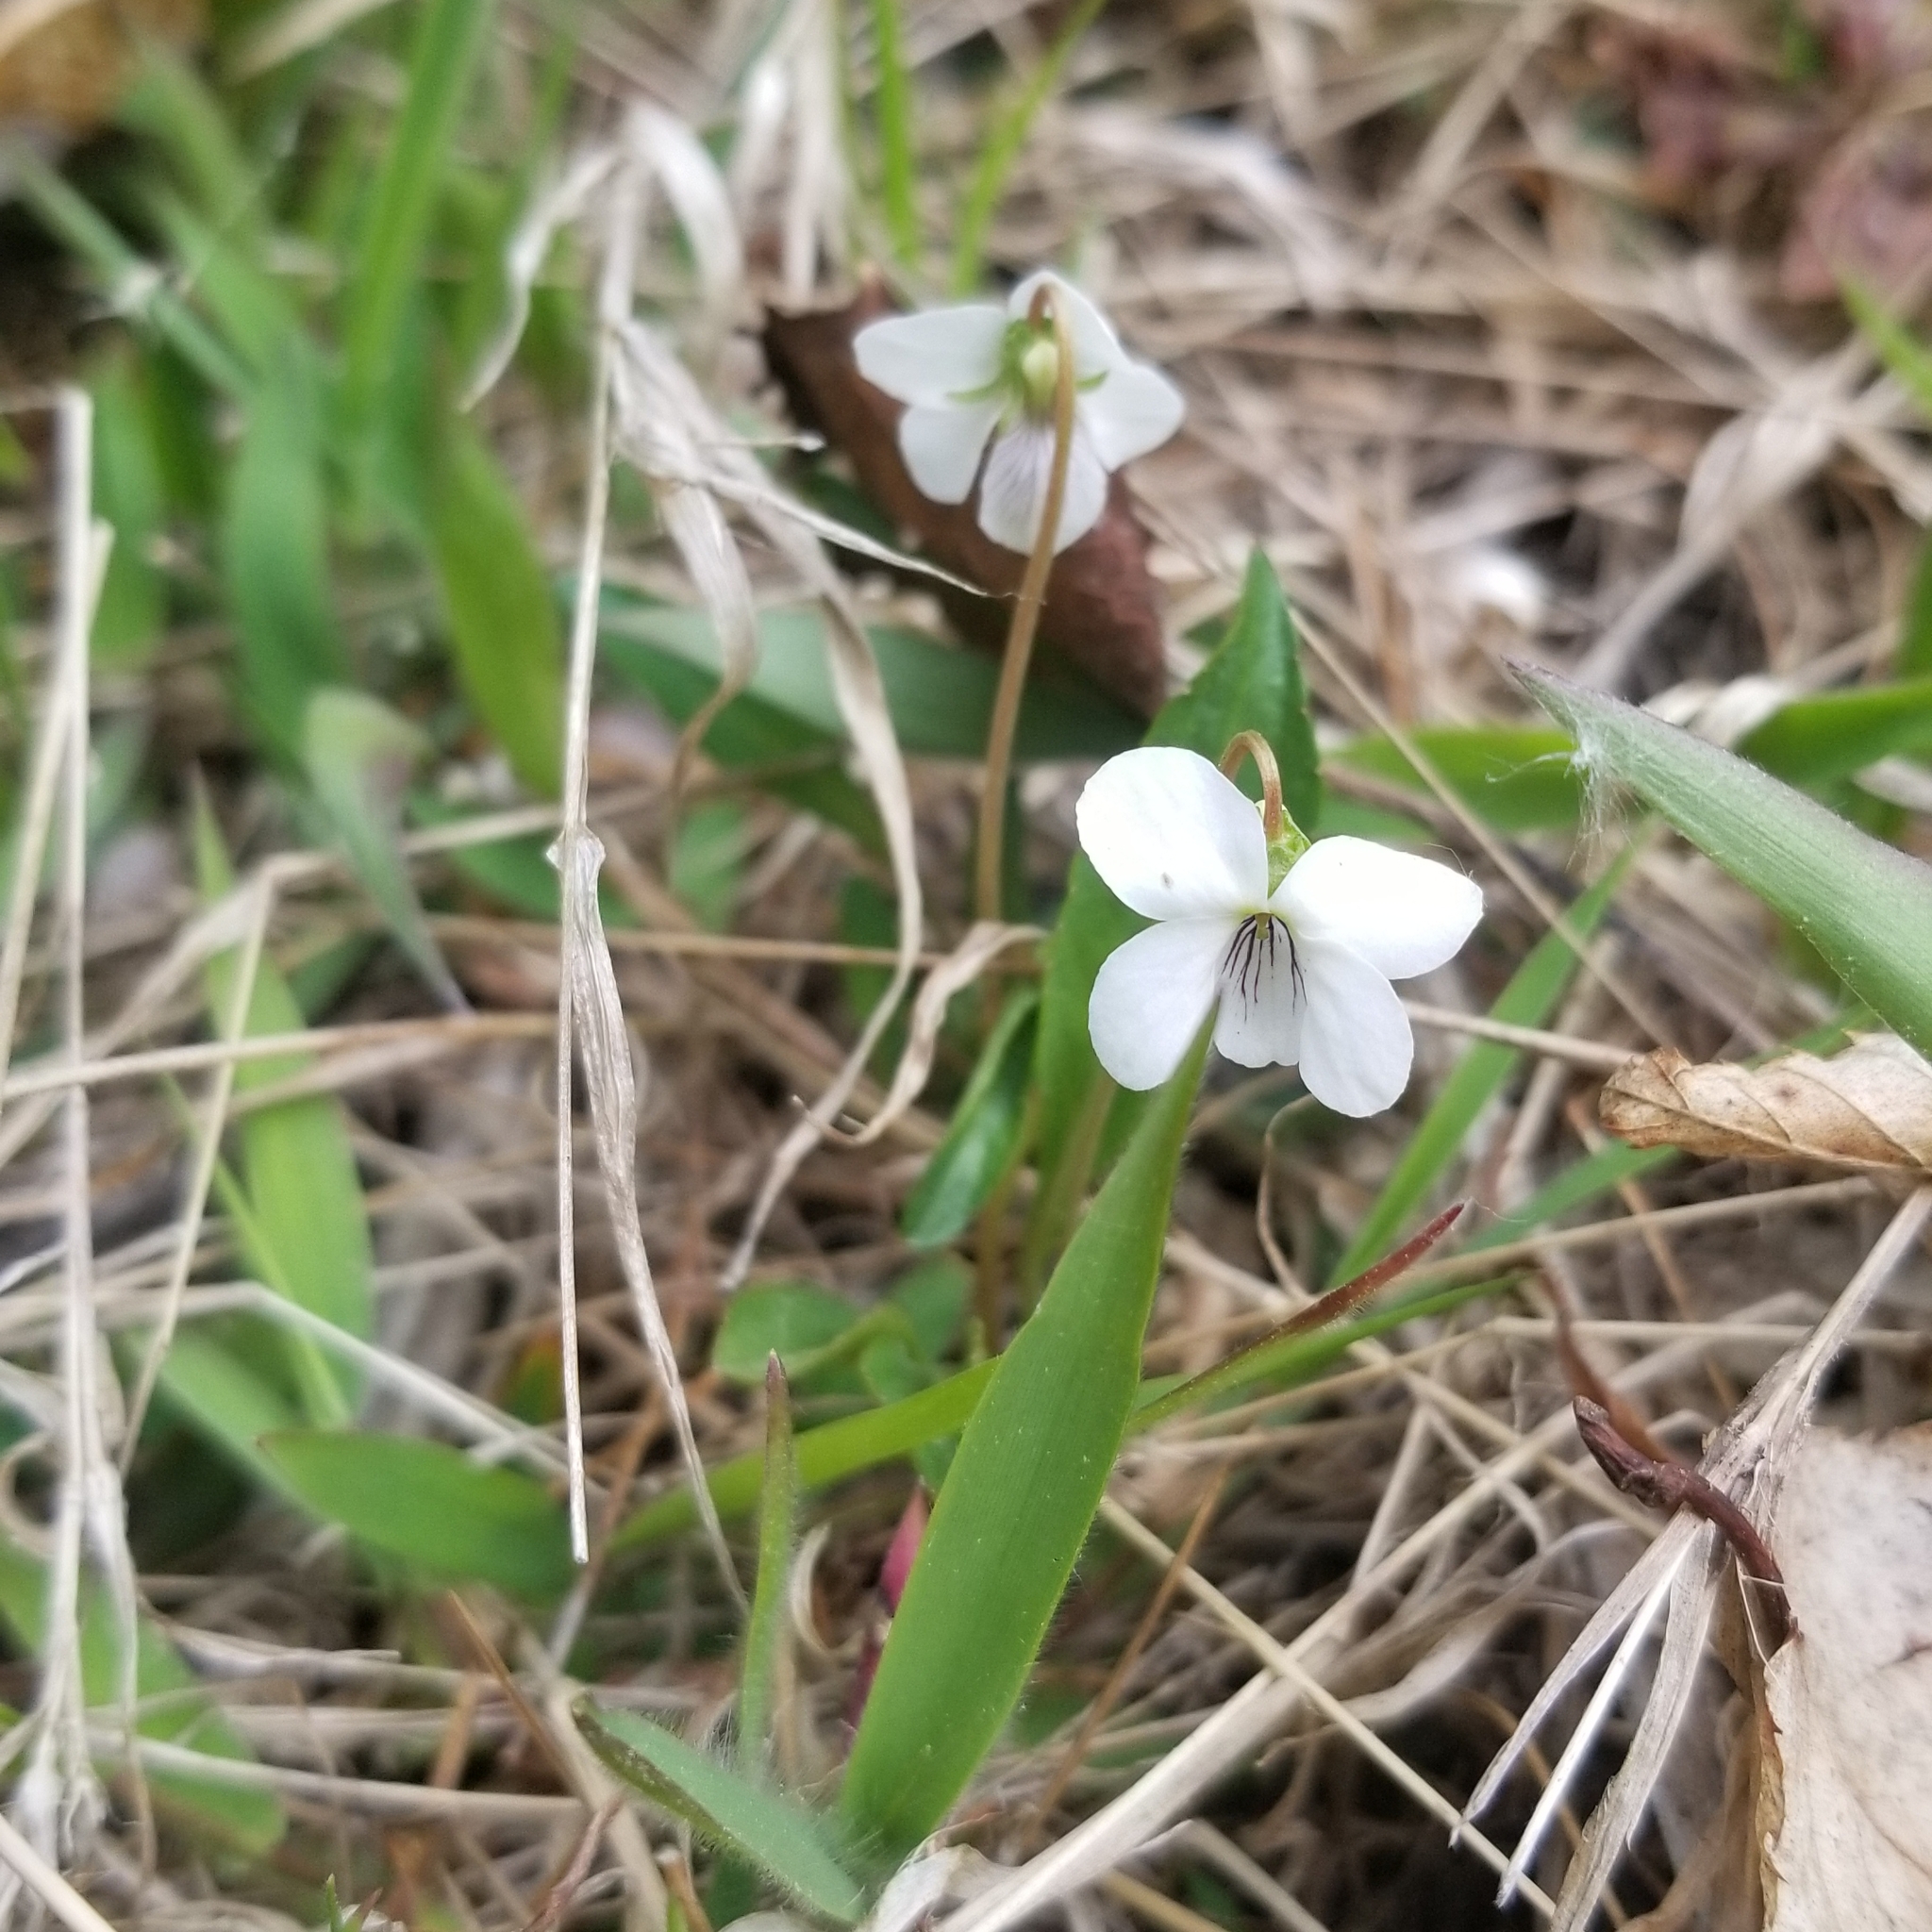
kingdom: Plantae
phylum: Tracheophyta
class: Magnoliopsida
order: Malpighiales
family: Violaceae
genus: Viola
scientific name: Viola lanceolata
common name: Bog white violet
